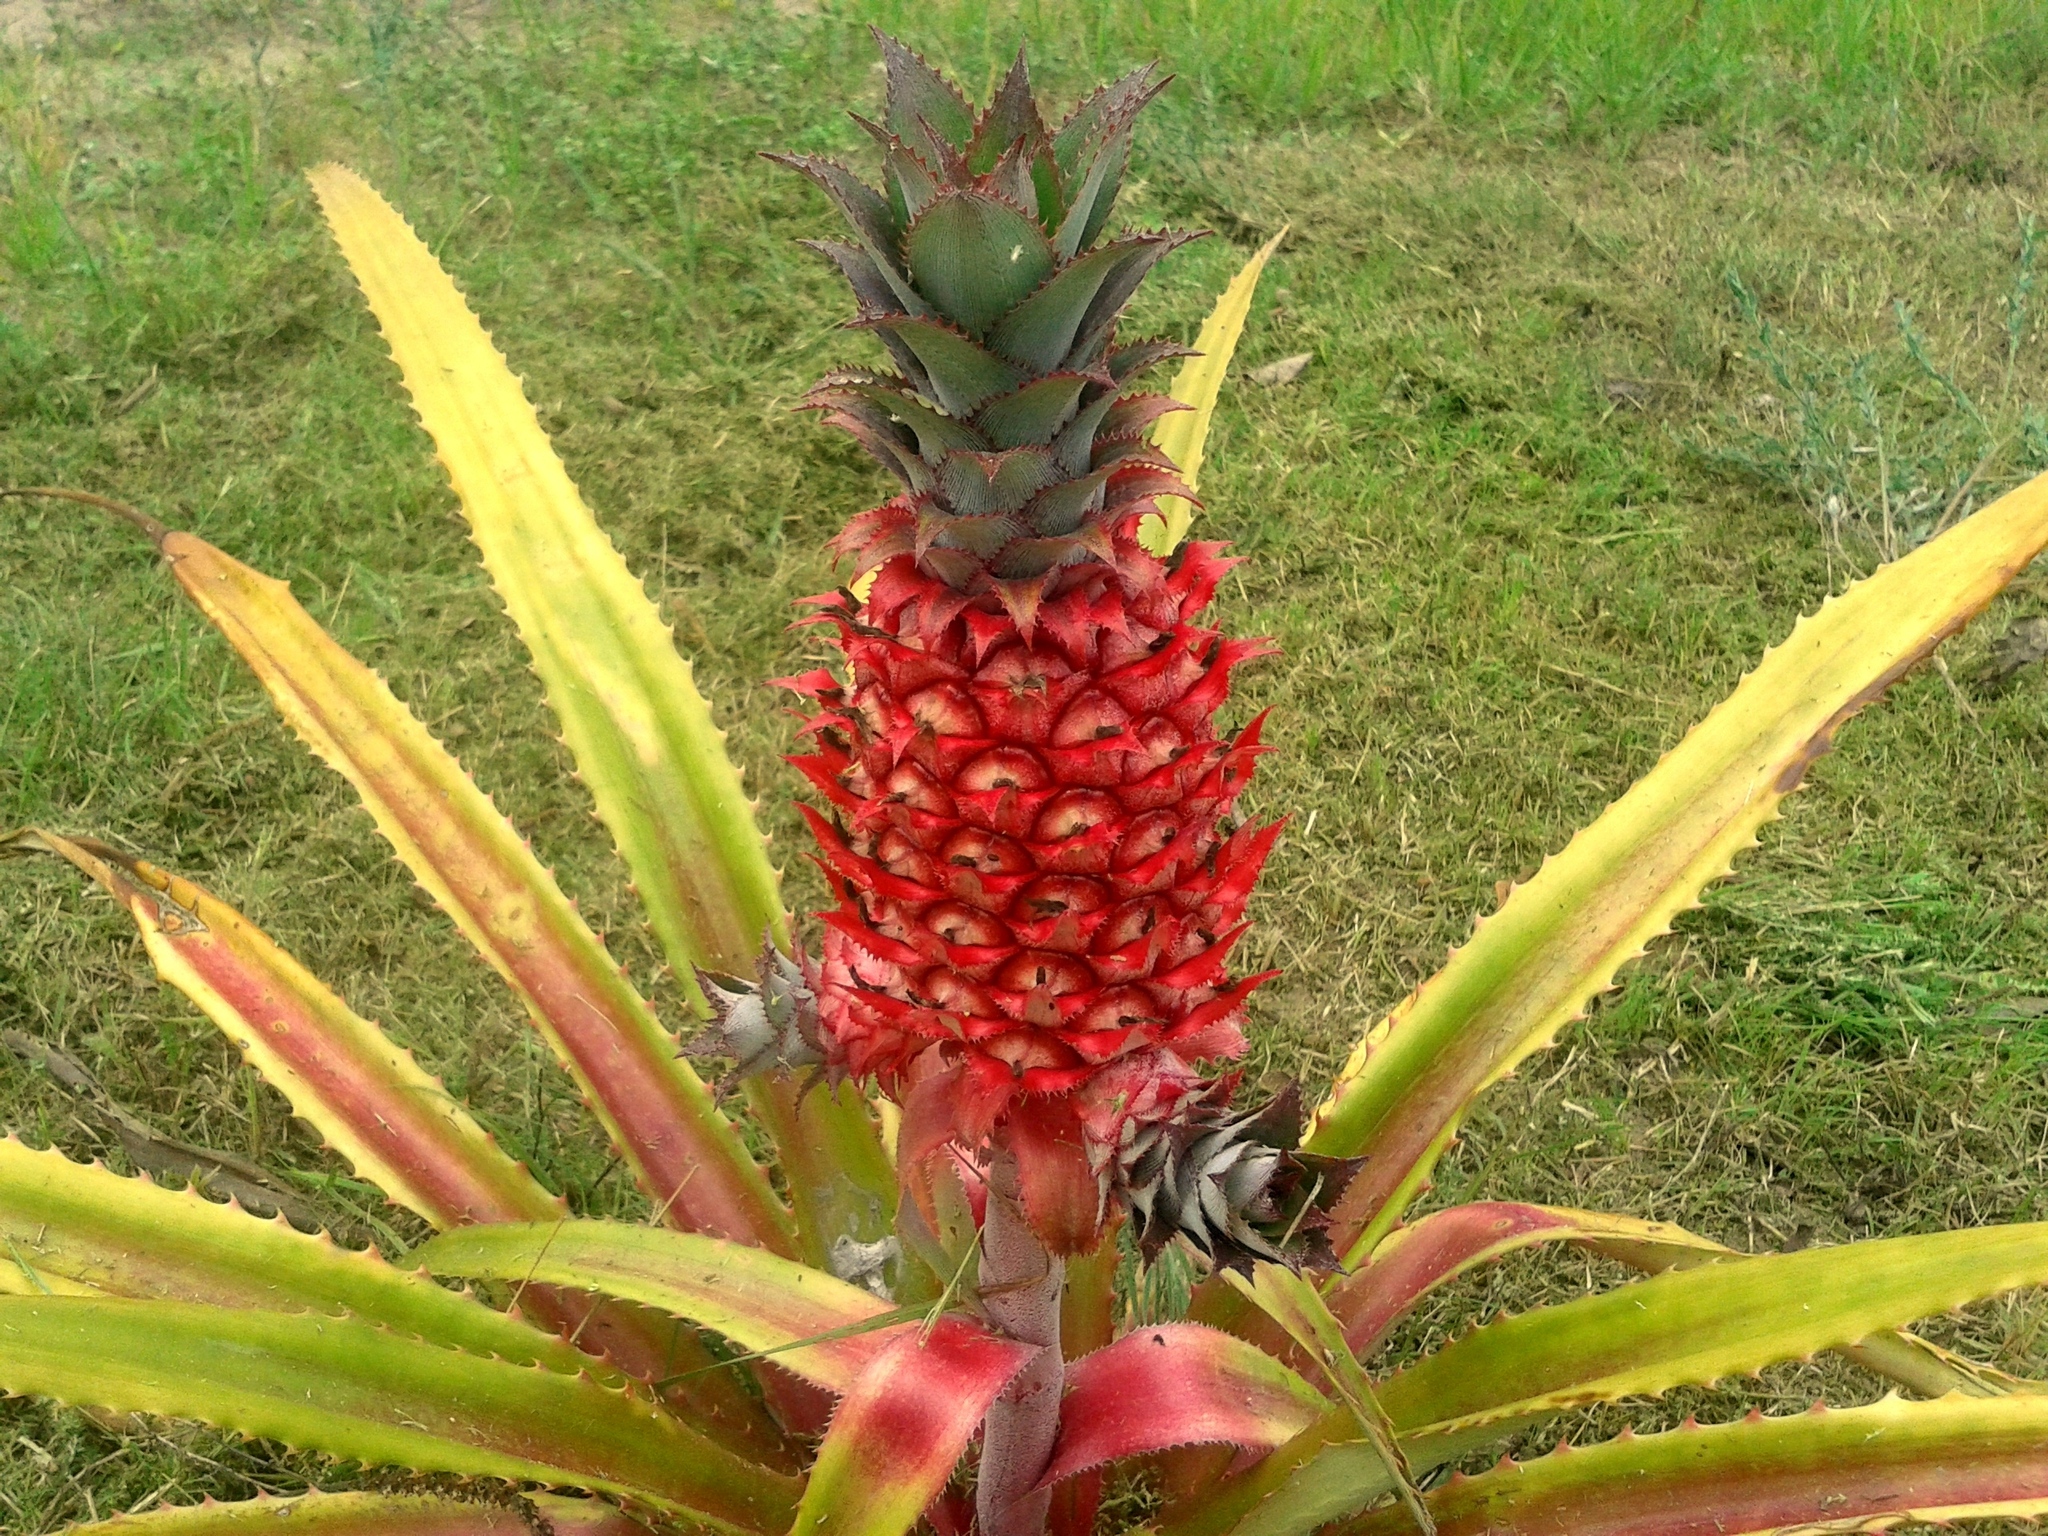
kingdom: Plantae
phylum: Tracheophyta
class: Liliopsida
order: Poales
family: Bromeliaceae
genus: Ananas
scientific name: Ananas comosus
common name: Pineapple
